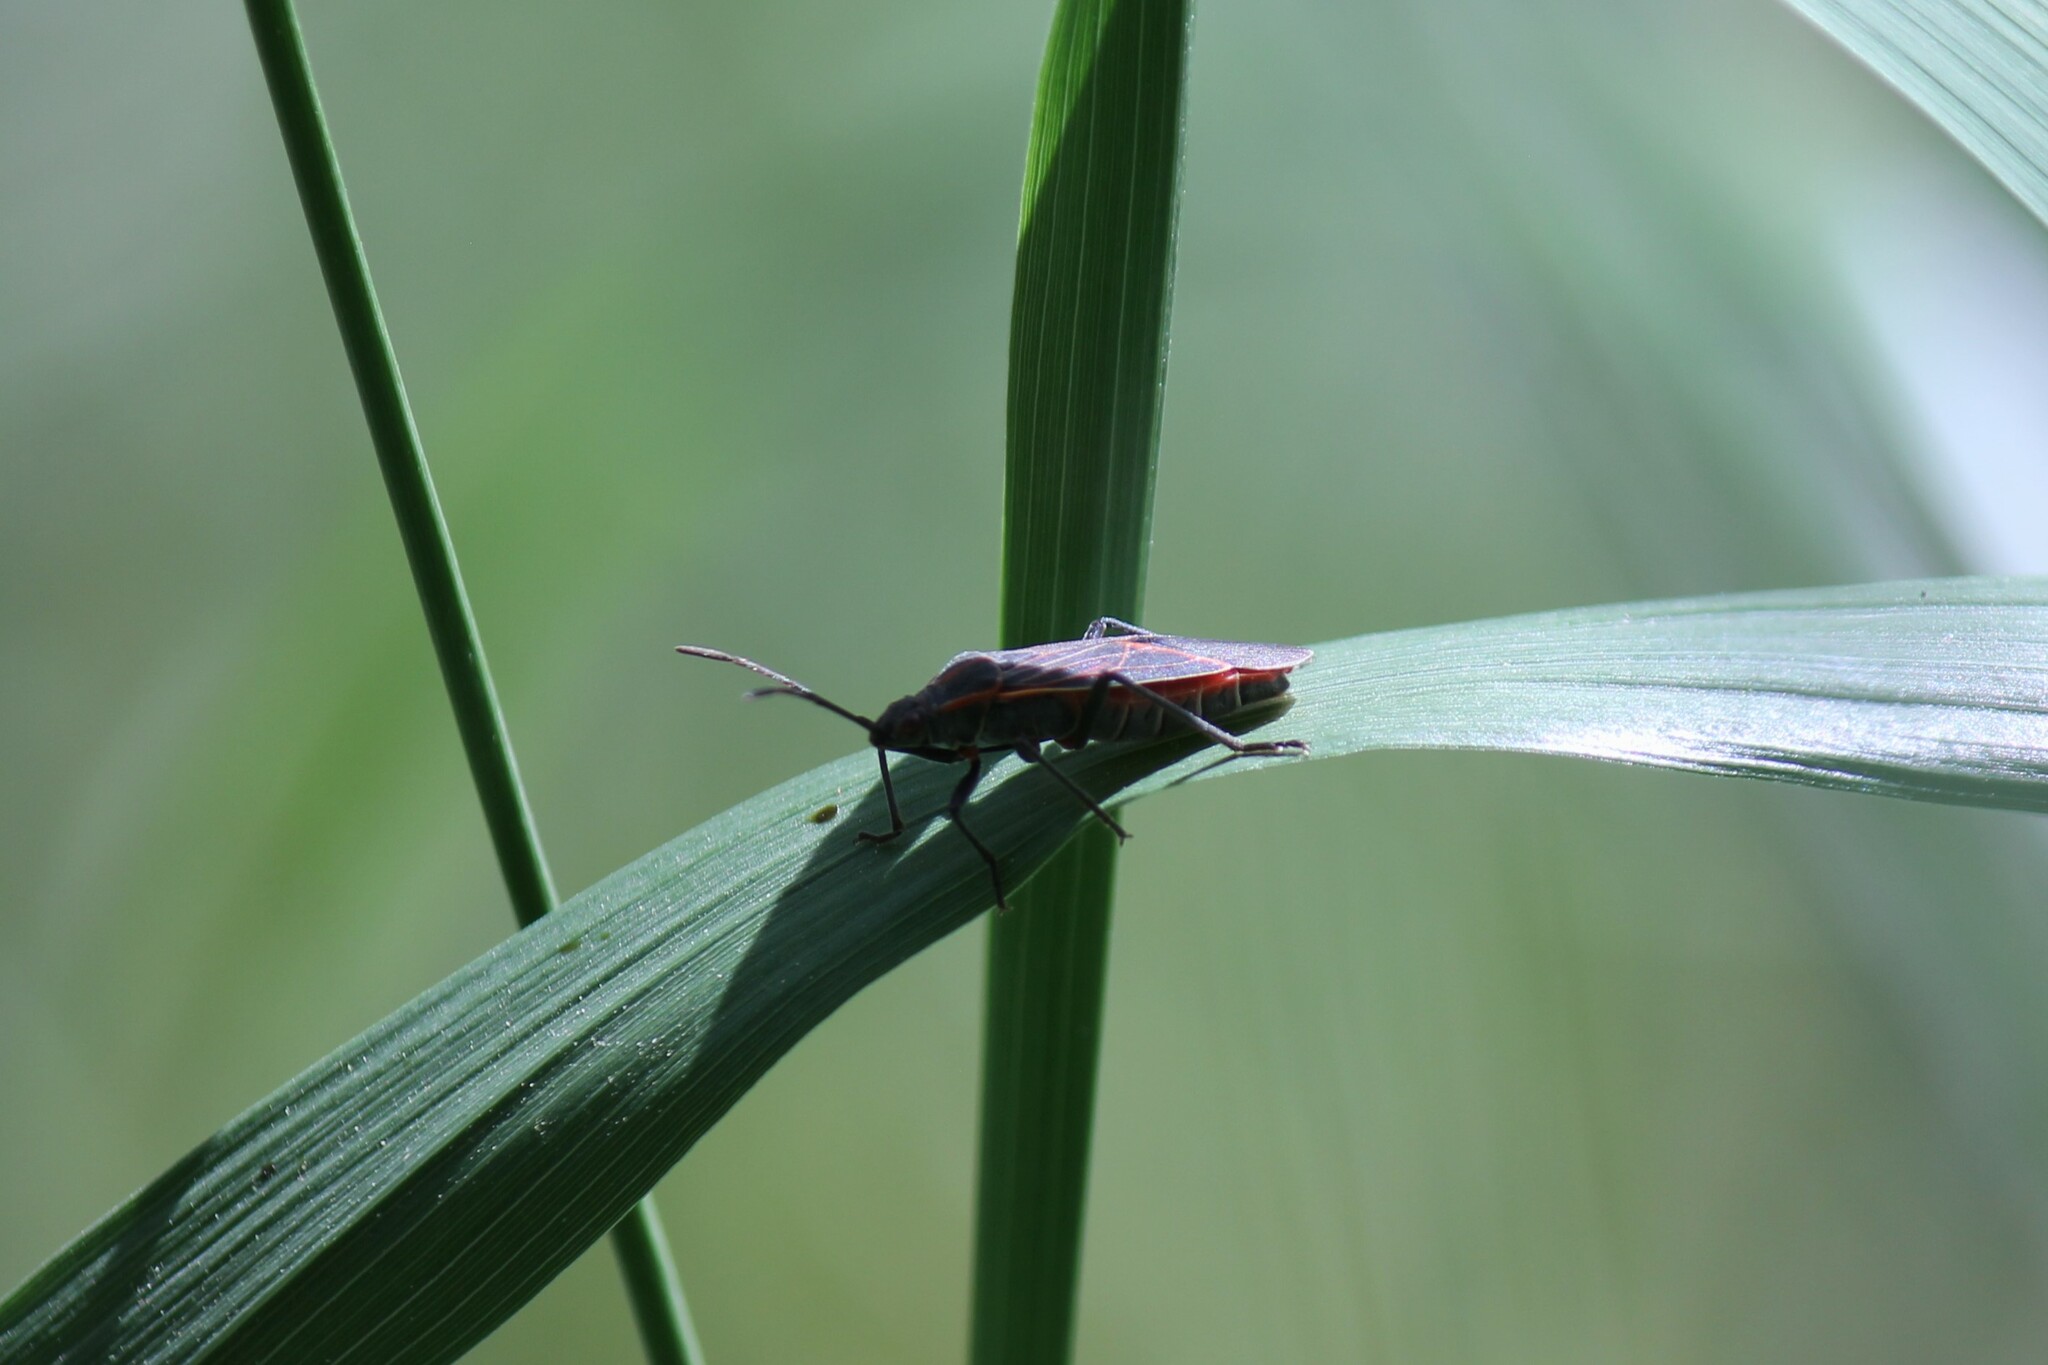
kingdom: Animalia
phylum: Arthropoda
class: Insecta
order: Hemiptera
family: Rhopalidae
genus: Boisea
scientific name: Boisea rubrolineata
